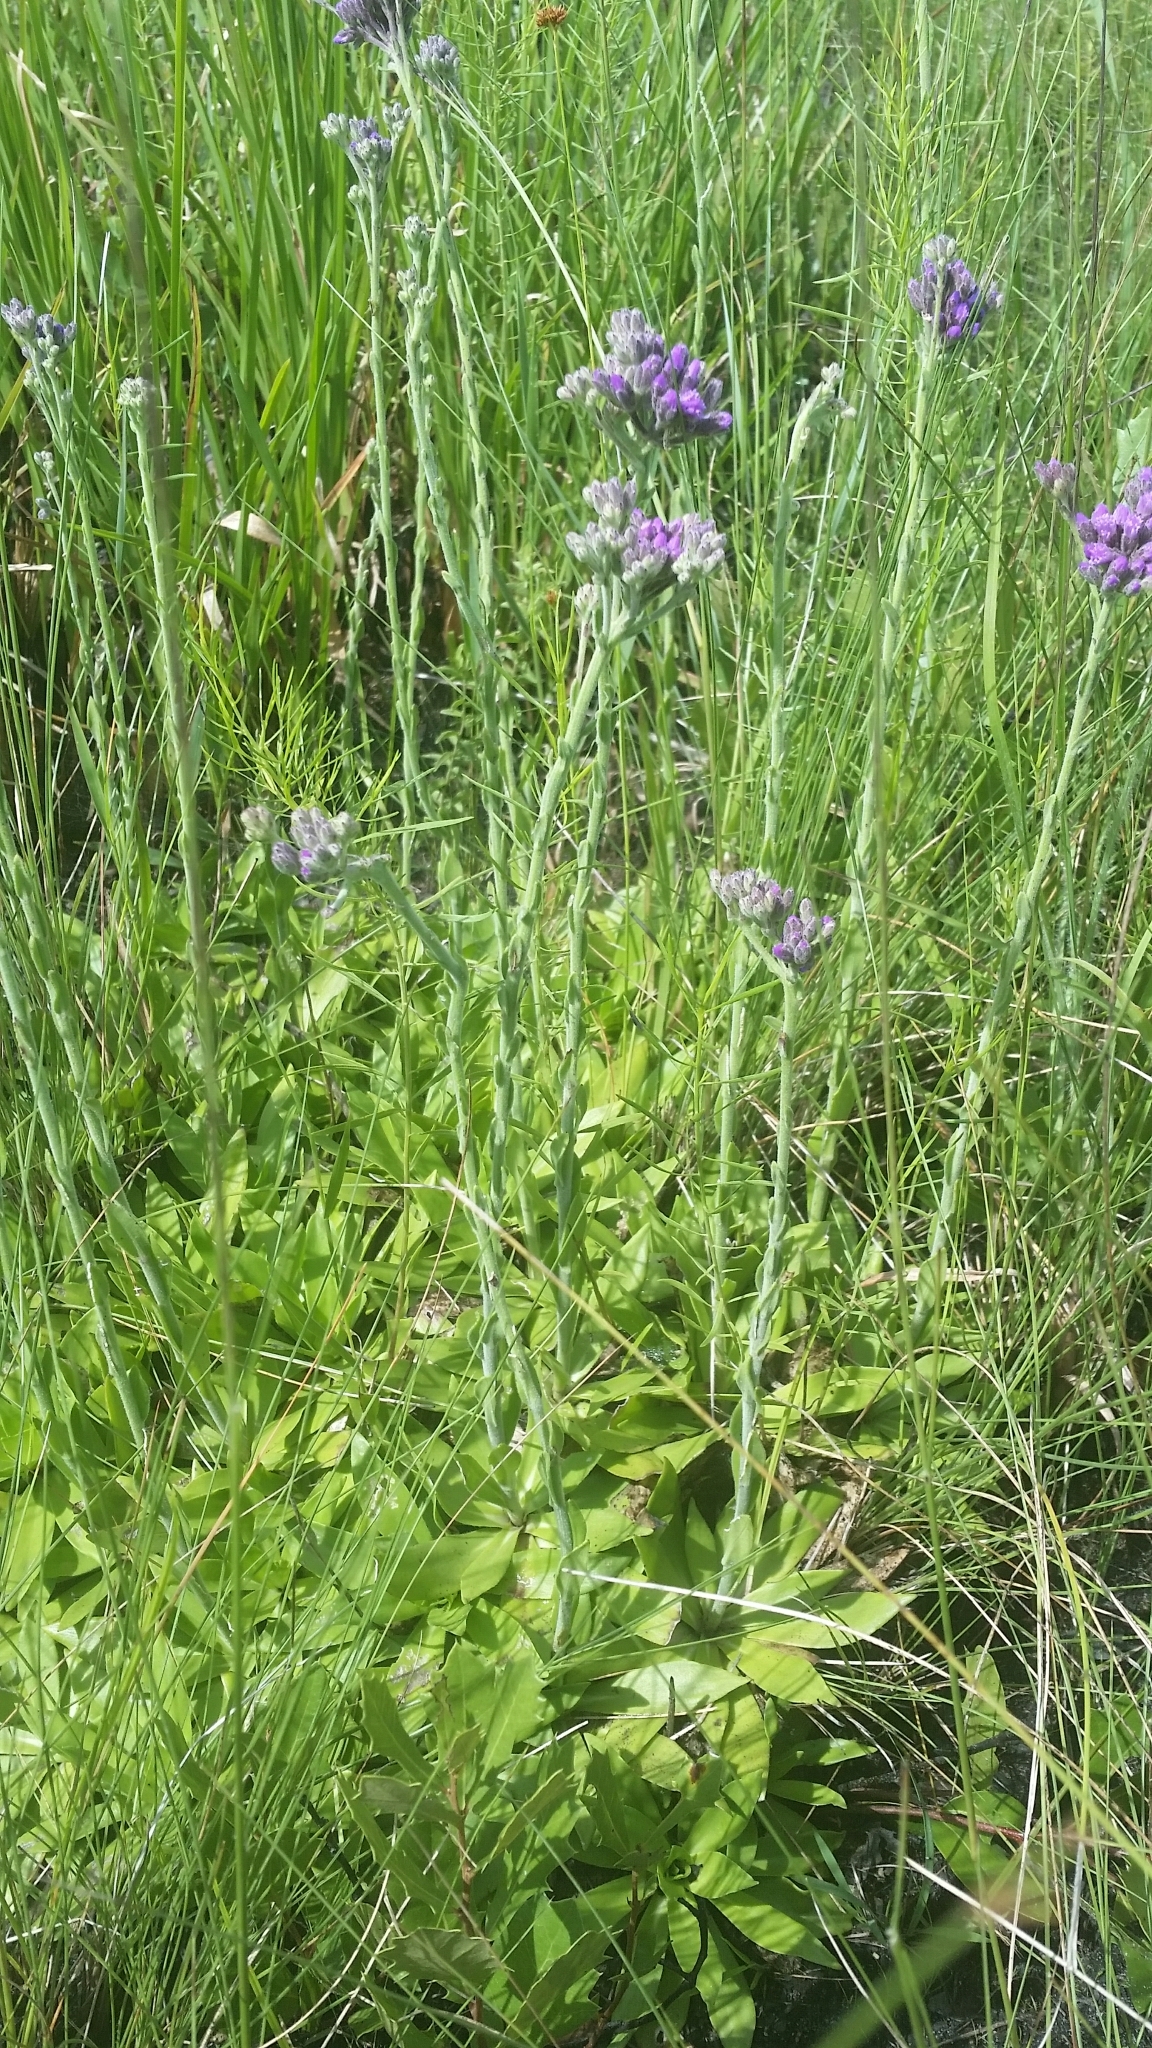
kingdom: Plantae
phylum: Tracheophyta
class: Magnoliopsida
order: Asterales
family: Asteraceae
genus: Carphephorus
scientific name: Carphephorus carnosus
